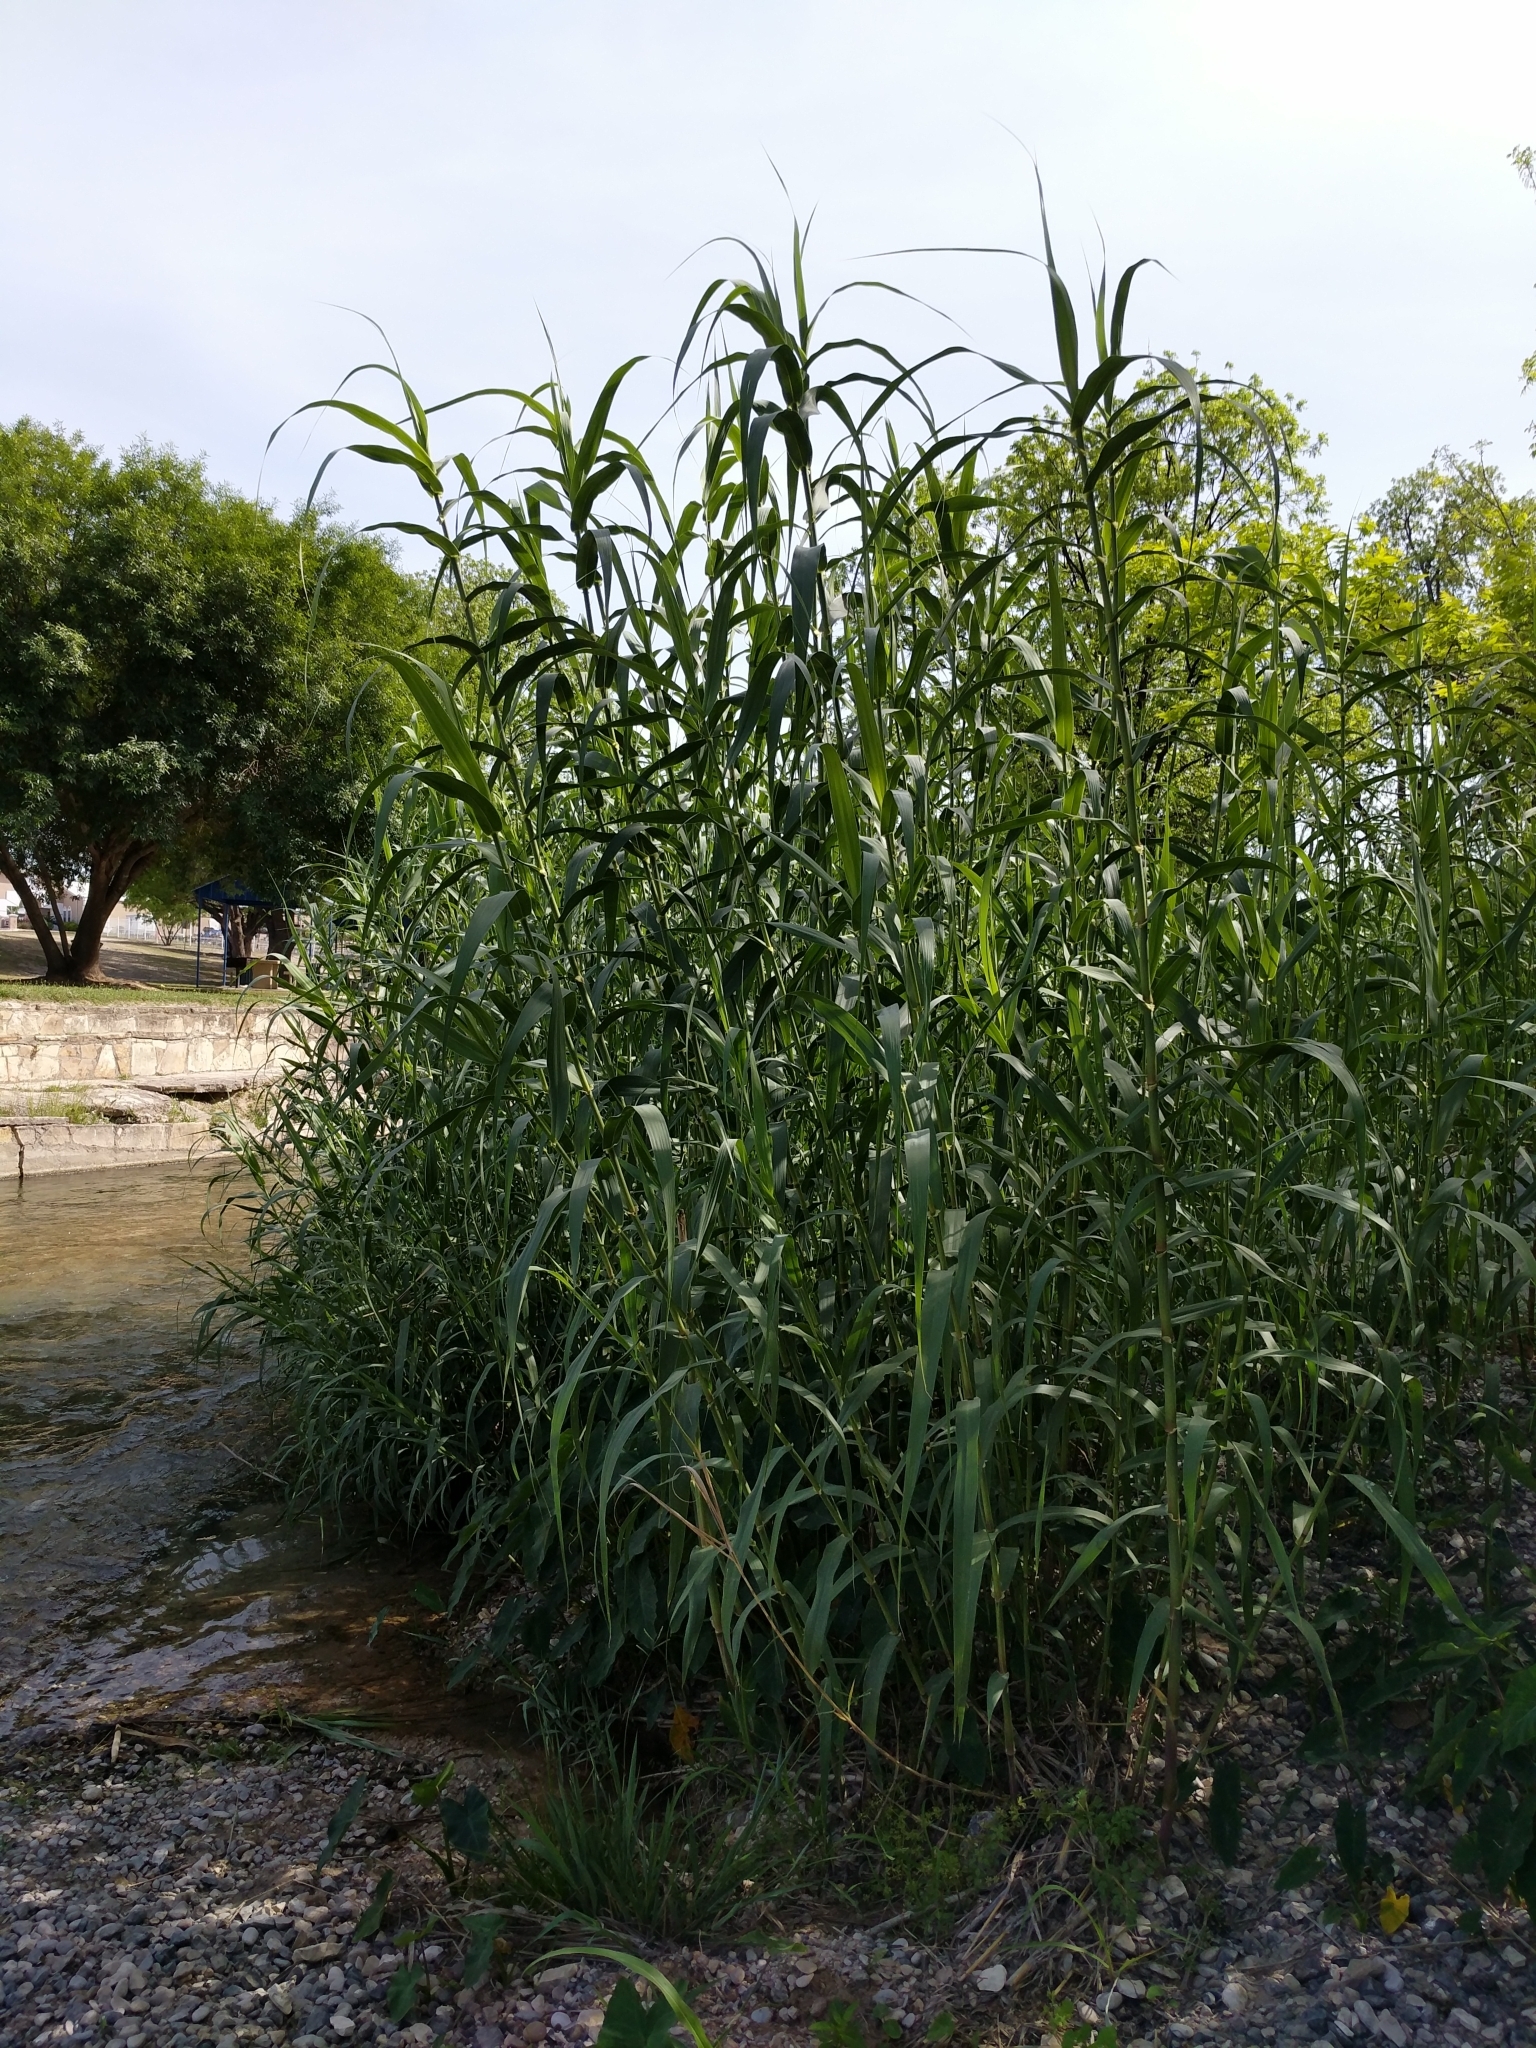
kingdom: Plantae
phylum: Tracheophyta
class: Liliopsida
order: Poales
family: Poaceae
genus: Arundo
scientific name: Arundo donax
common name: Giant reed
